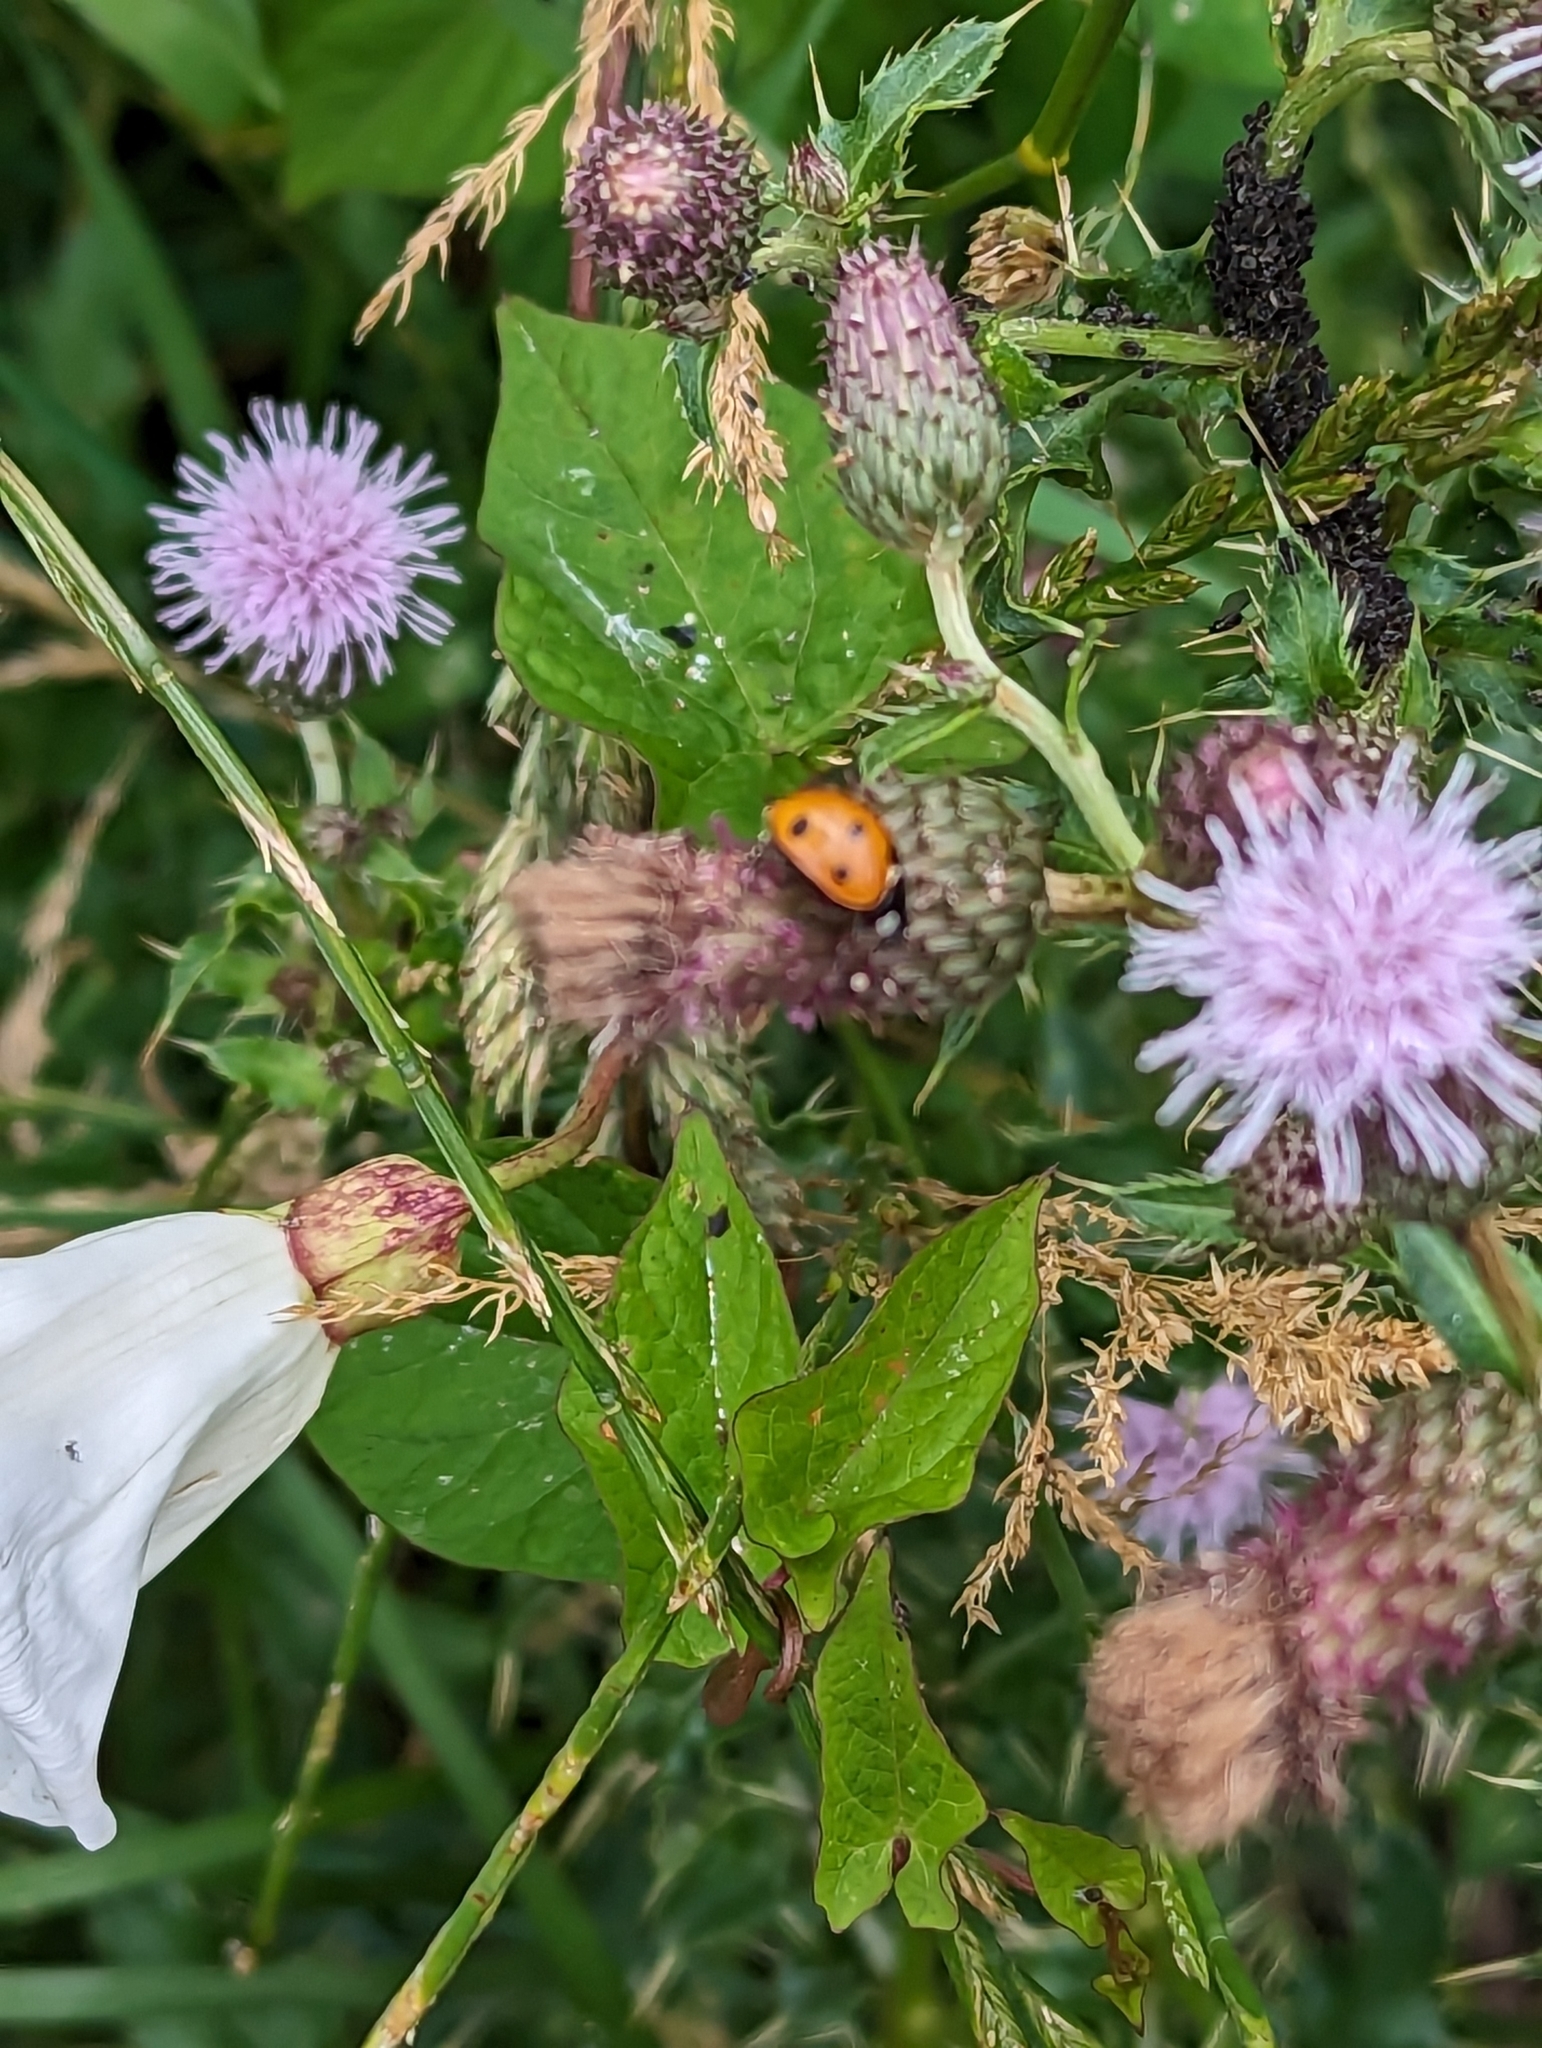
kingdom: Animalia
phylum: Arthropoda
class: Insecta
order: Coleoptera
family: Coccinellidae
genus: Coccinella
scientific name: Coccinella septempunctata
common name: Sevenspotted lady beetle
